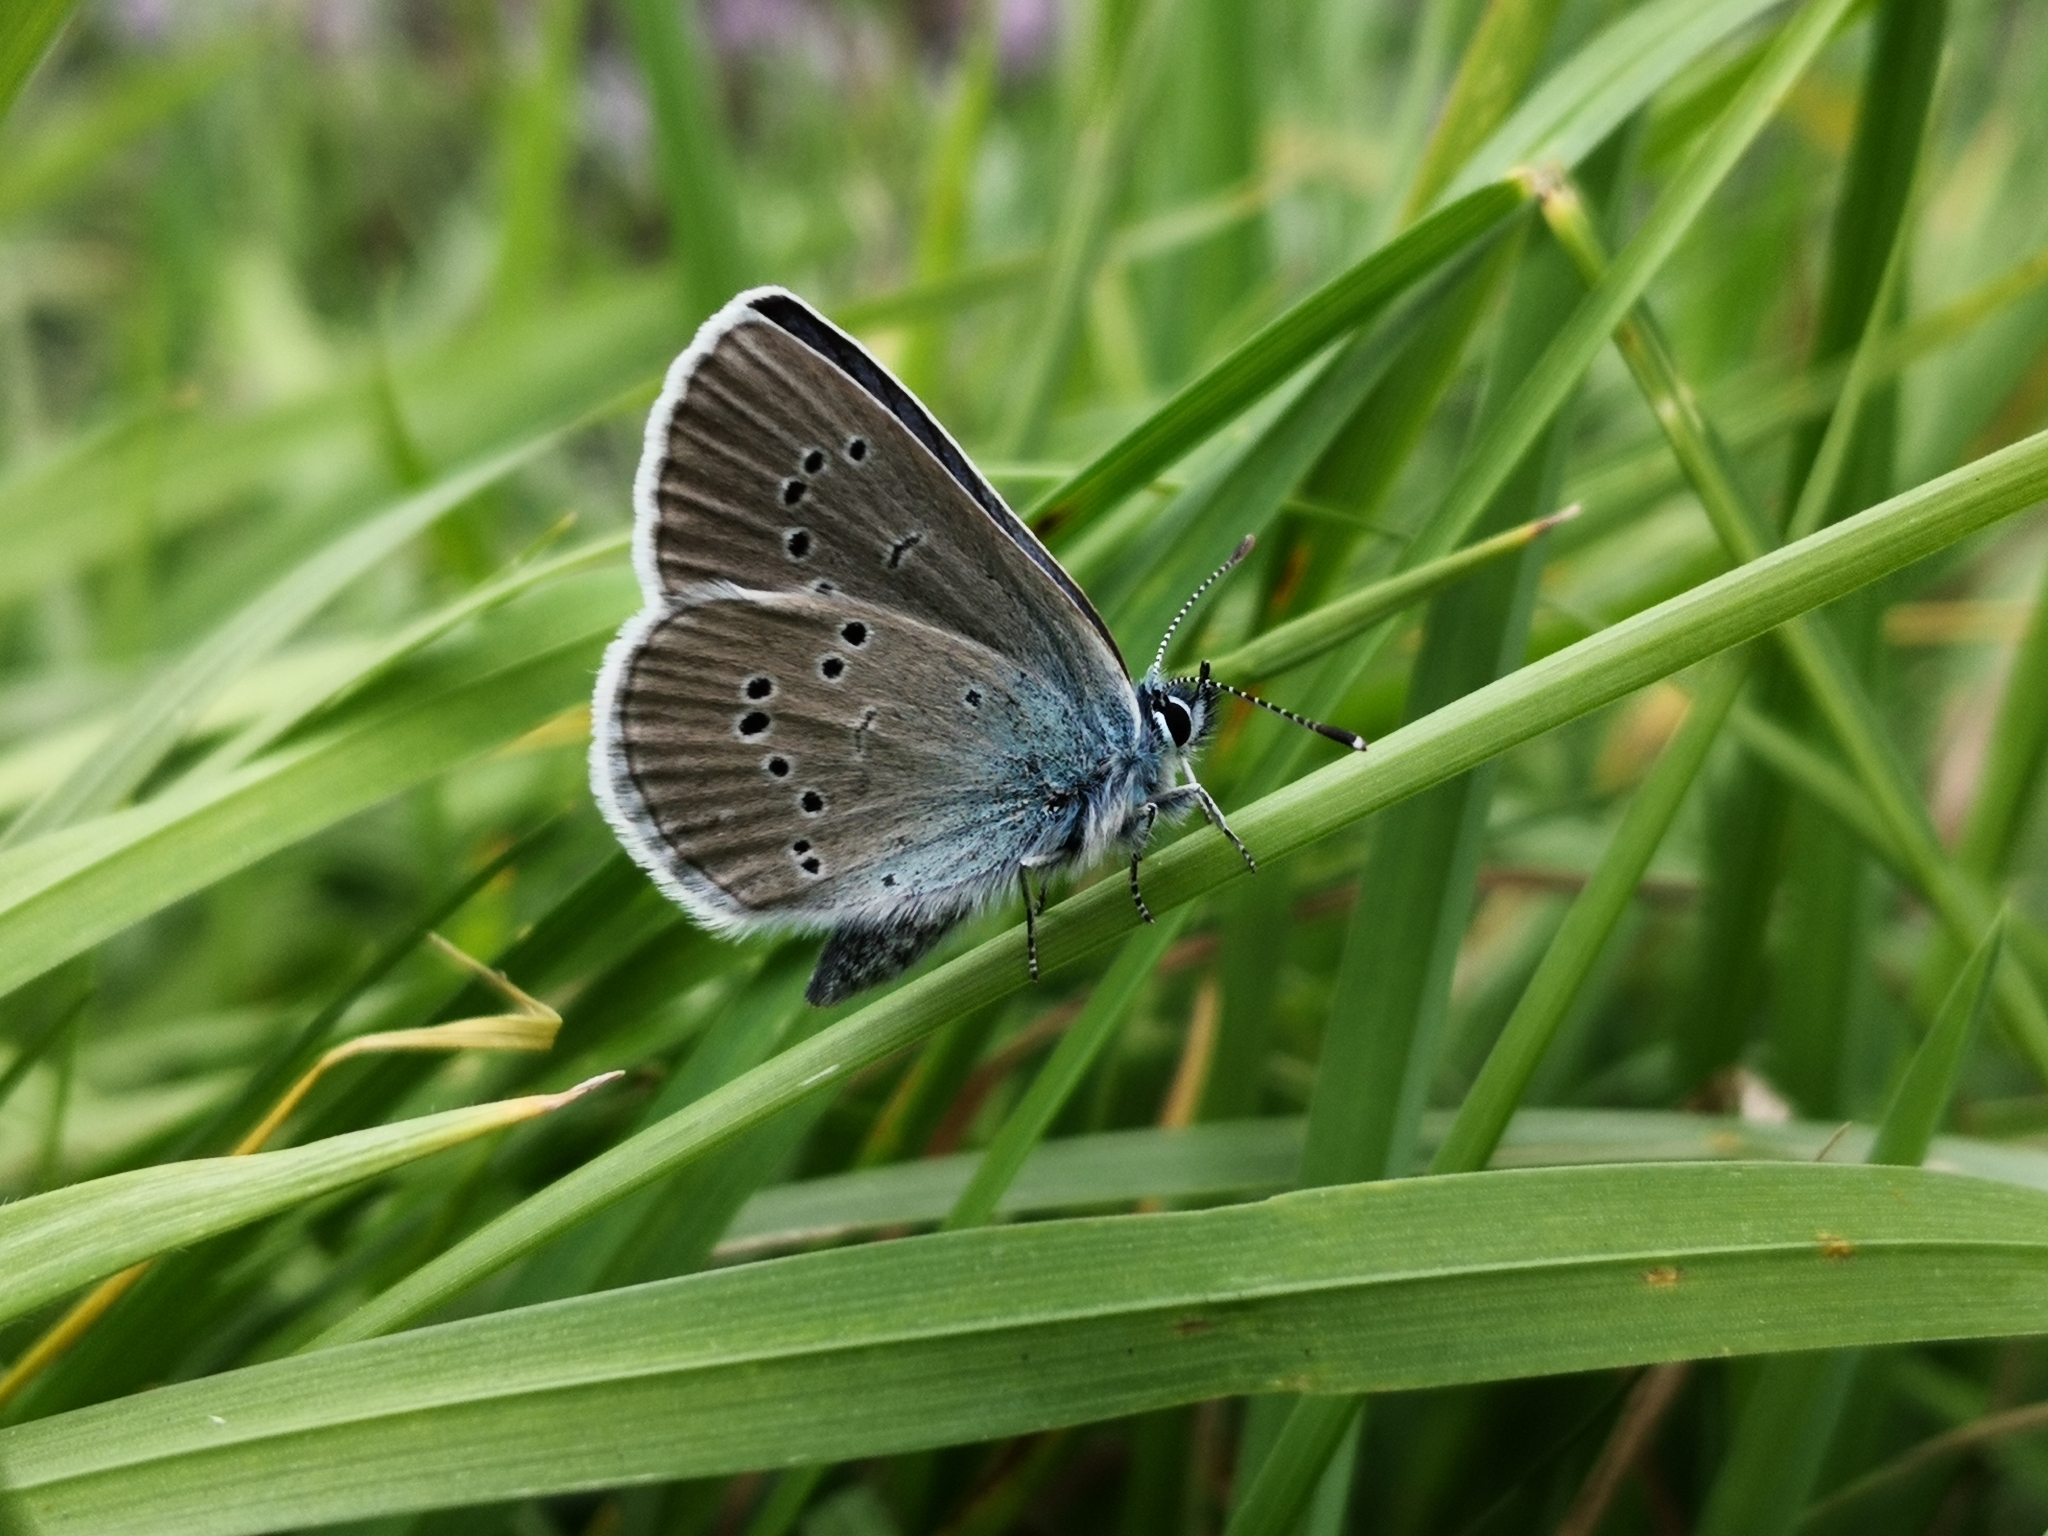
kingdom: Animalia
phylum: Arthropoda
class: Insecta
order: Lepidoptera
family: Lycaenidae
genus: Cyaniris
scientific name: Cyaniris semiargus
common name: Mazarine blue
